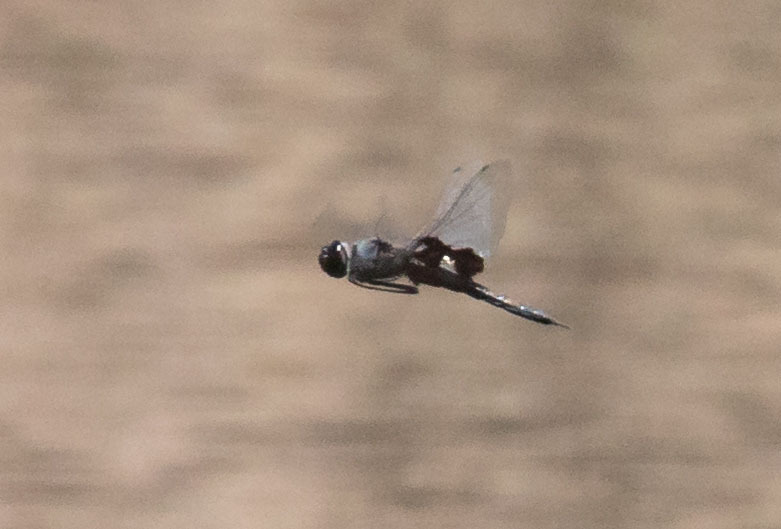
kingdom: Animalia
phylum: Arthropoda
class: Insecta
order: Odonata
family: Libellulidae
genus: Tramea
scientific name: Tramea lacerata
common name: Black saddlebags
